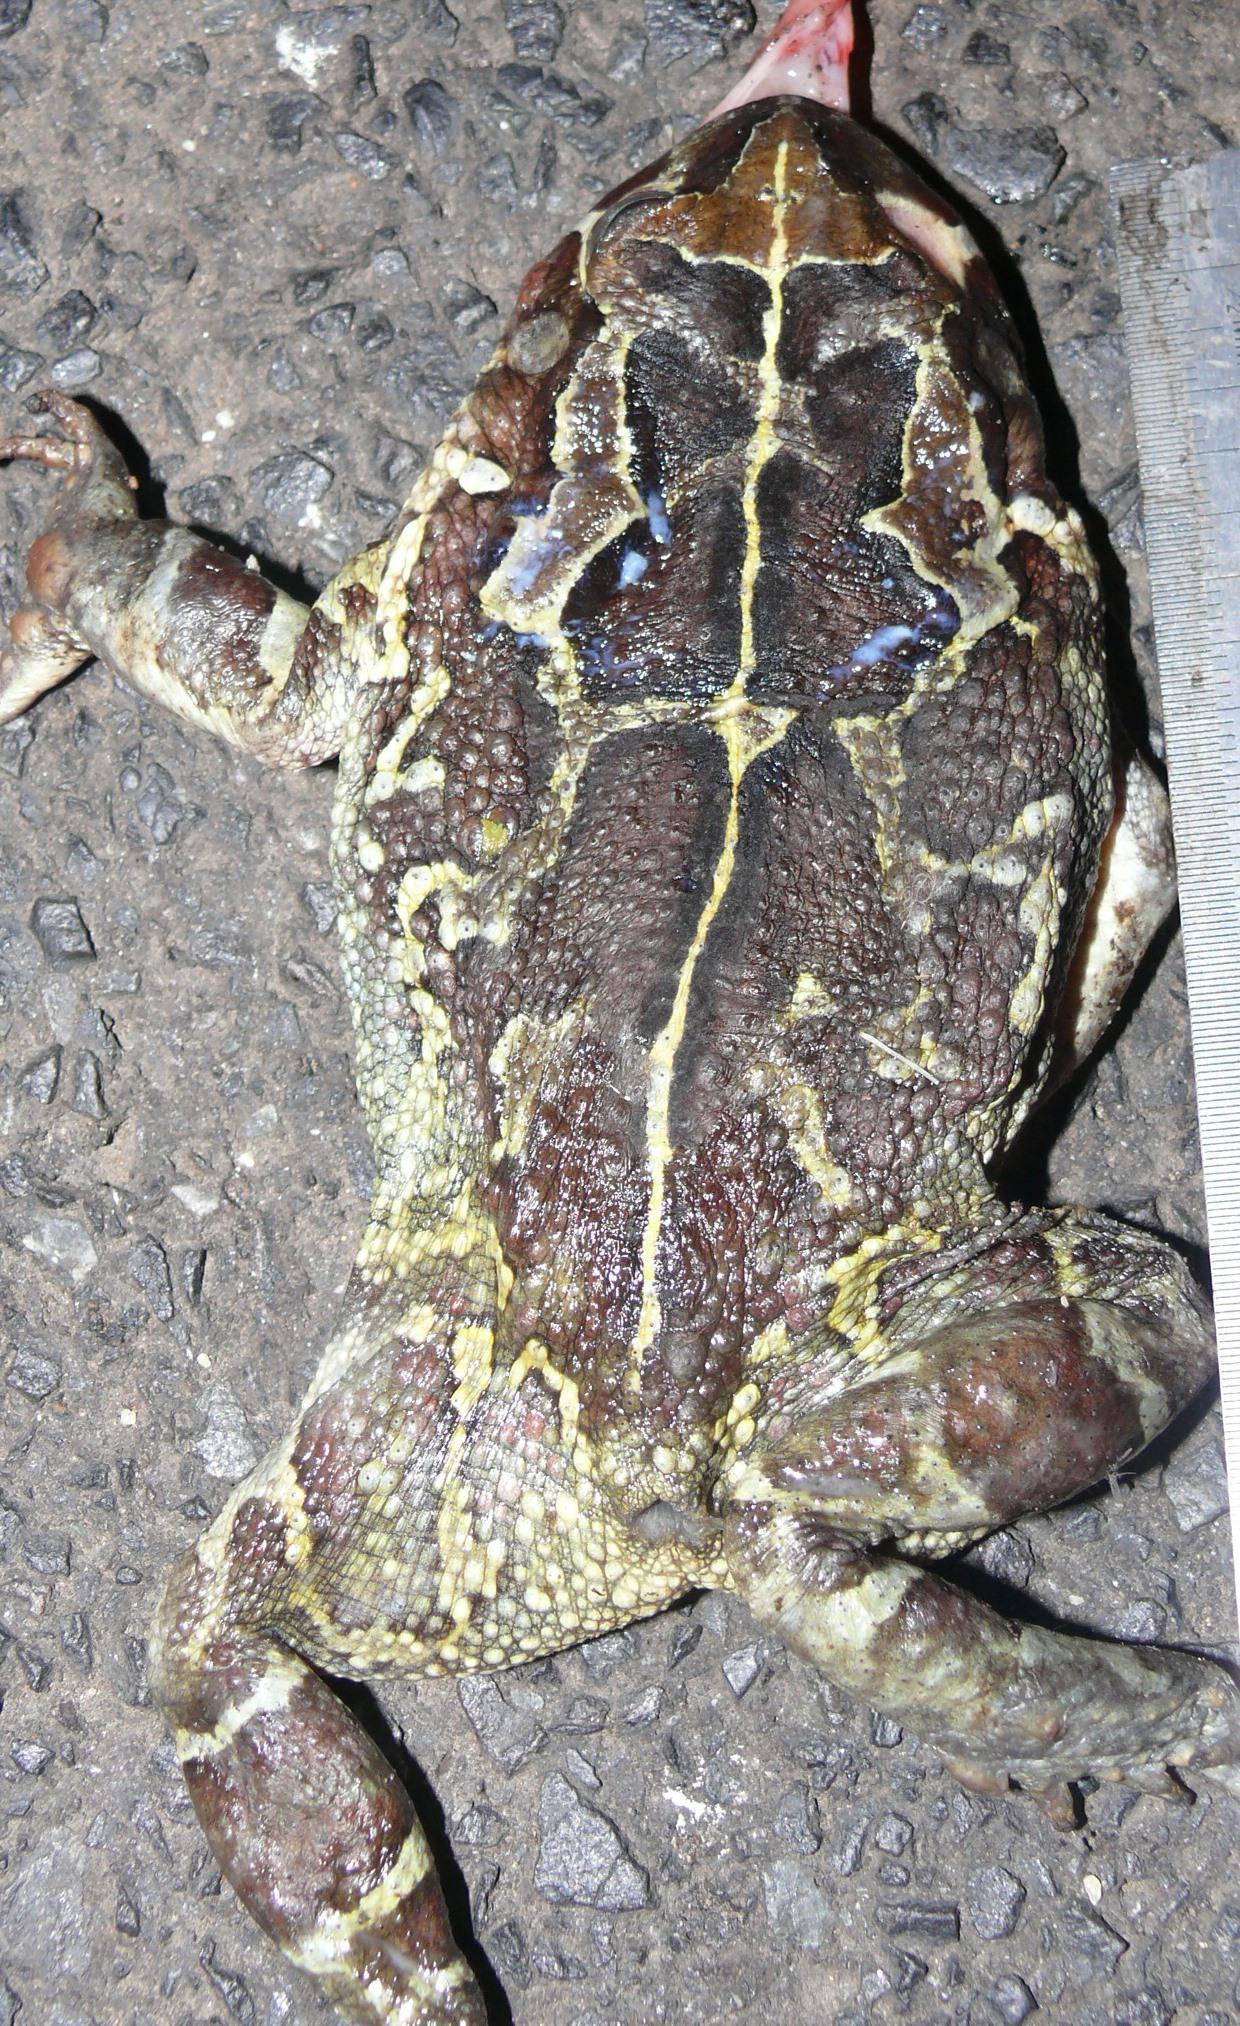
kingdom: Animalia
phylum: Chordata
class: Amphibia
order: Anura
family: Bufonidae
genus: Sclerophrys
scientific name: Sclerophrys pantherina
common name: Panther toad
